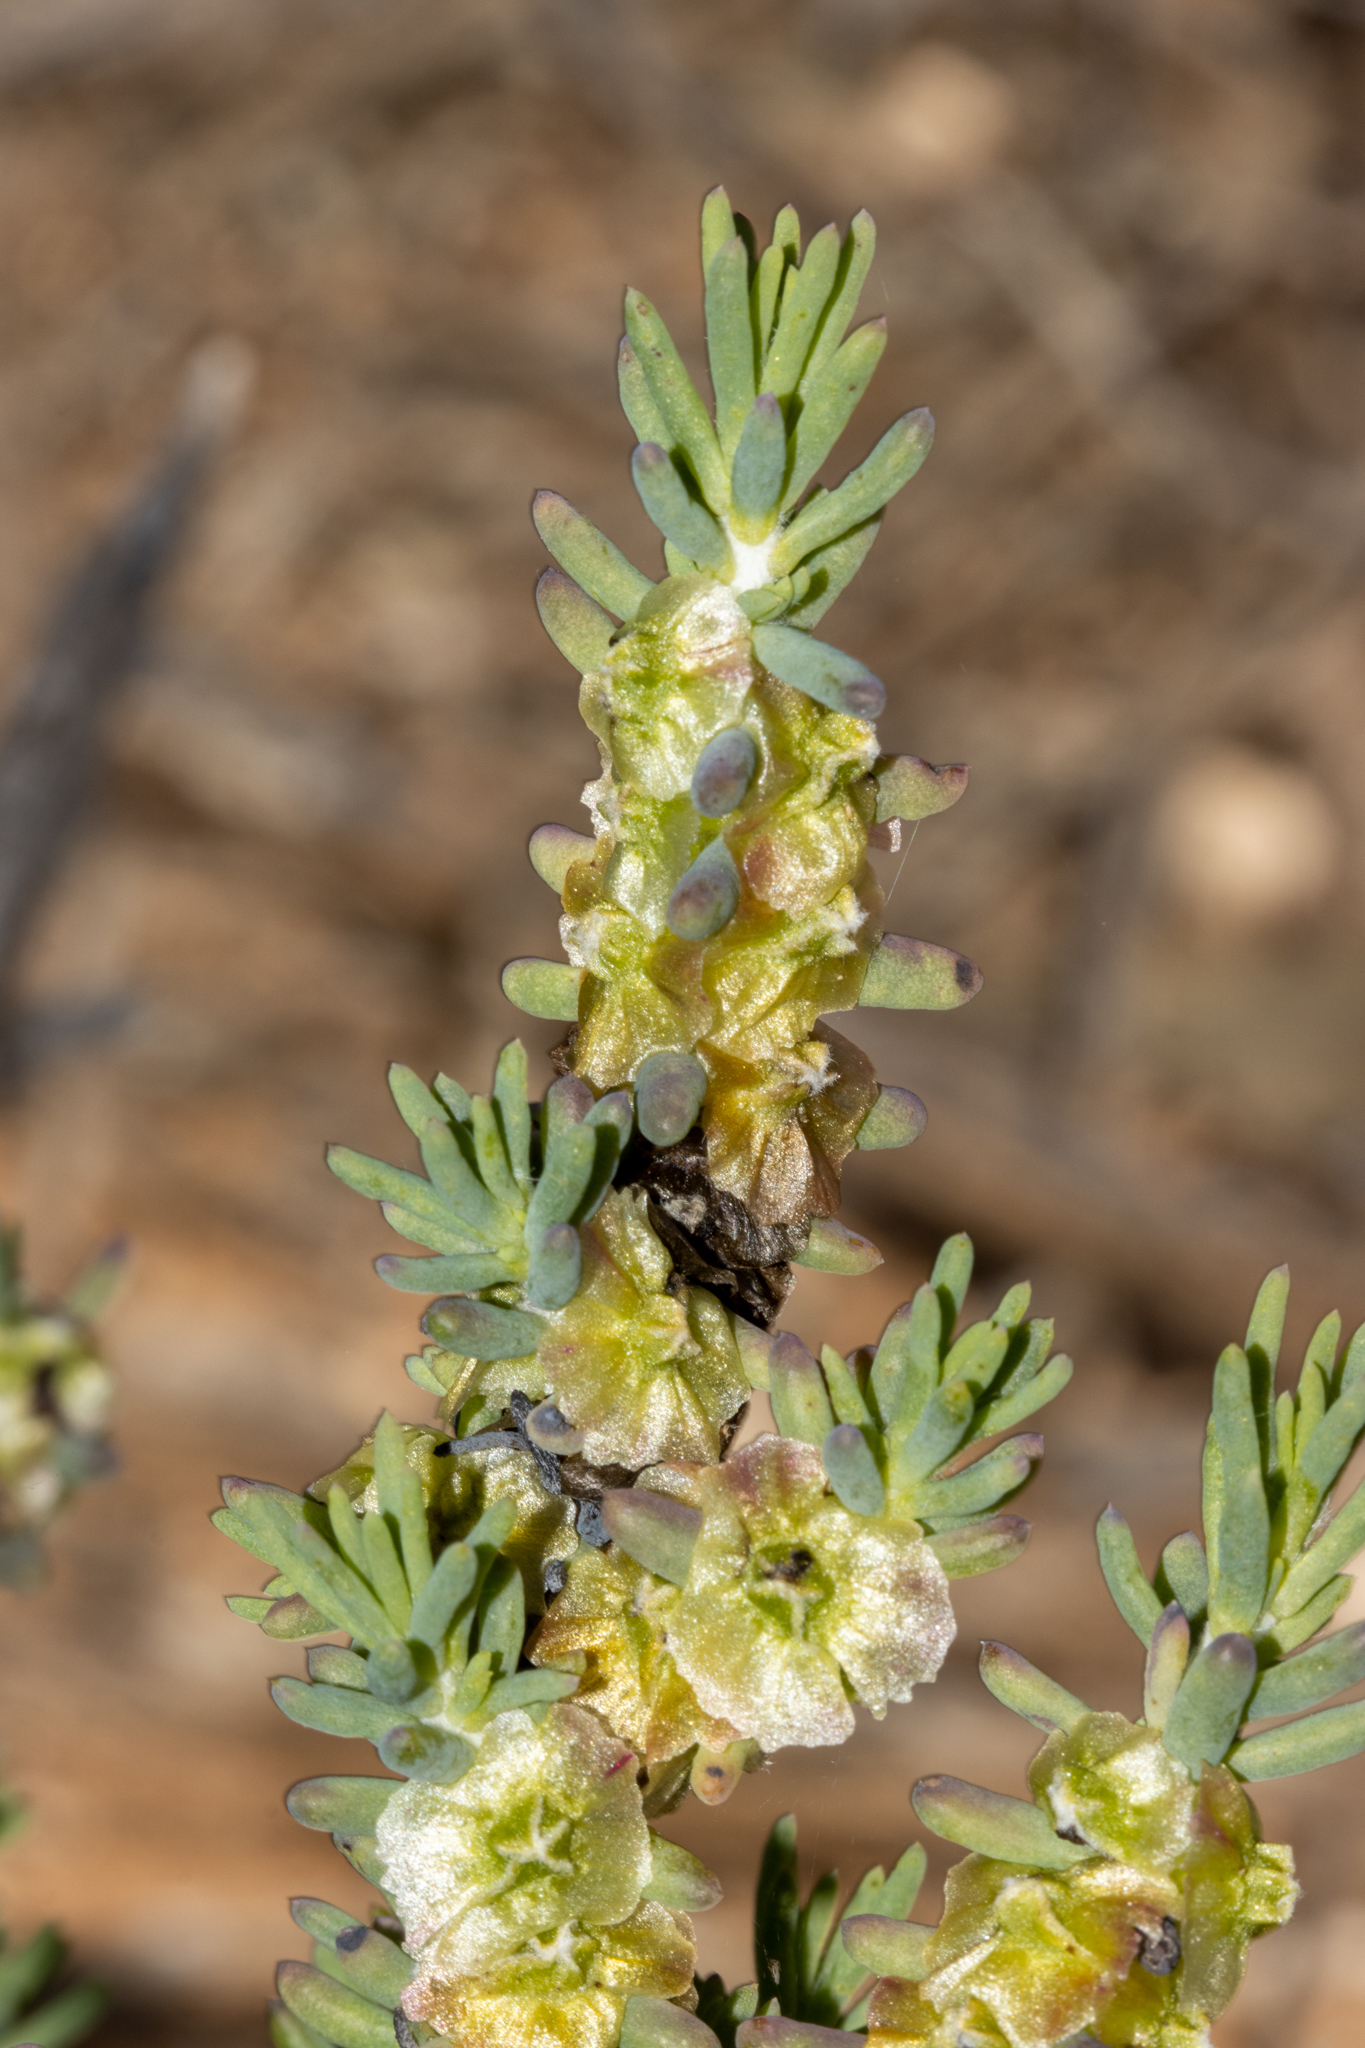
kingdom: Plantae
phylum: Tracheophyta
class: Magnoliopsida
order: Caryophyllales
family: Amaranthaceae
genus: Maireana
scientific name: Maireana pentatropis
